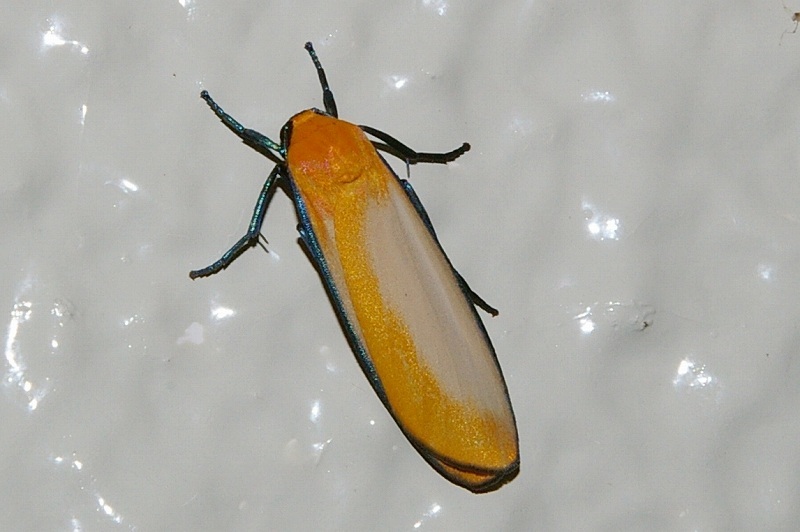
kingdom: Animalia
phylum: Arthropoda
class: Insecta
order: Lepidoptera
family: Erebidae
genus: Conilepia
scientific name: Conilepia nigricosta
